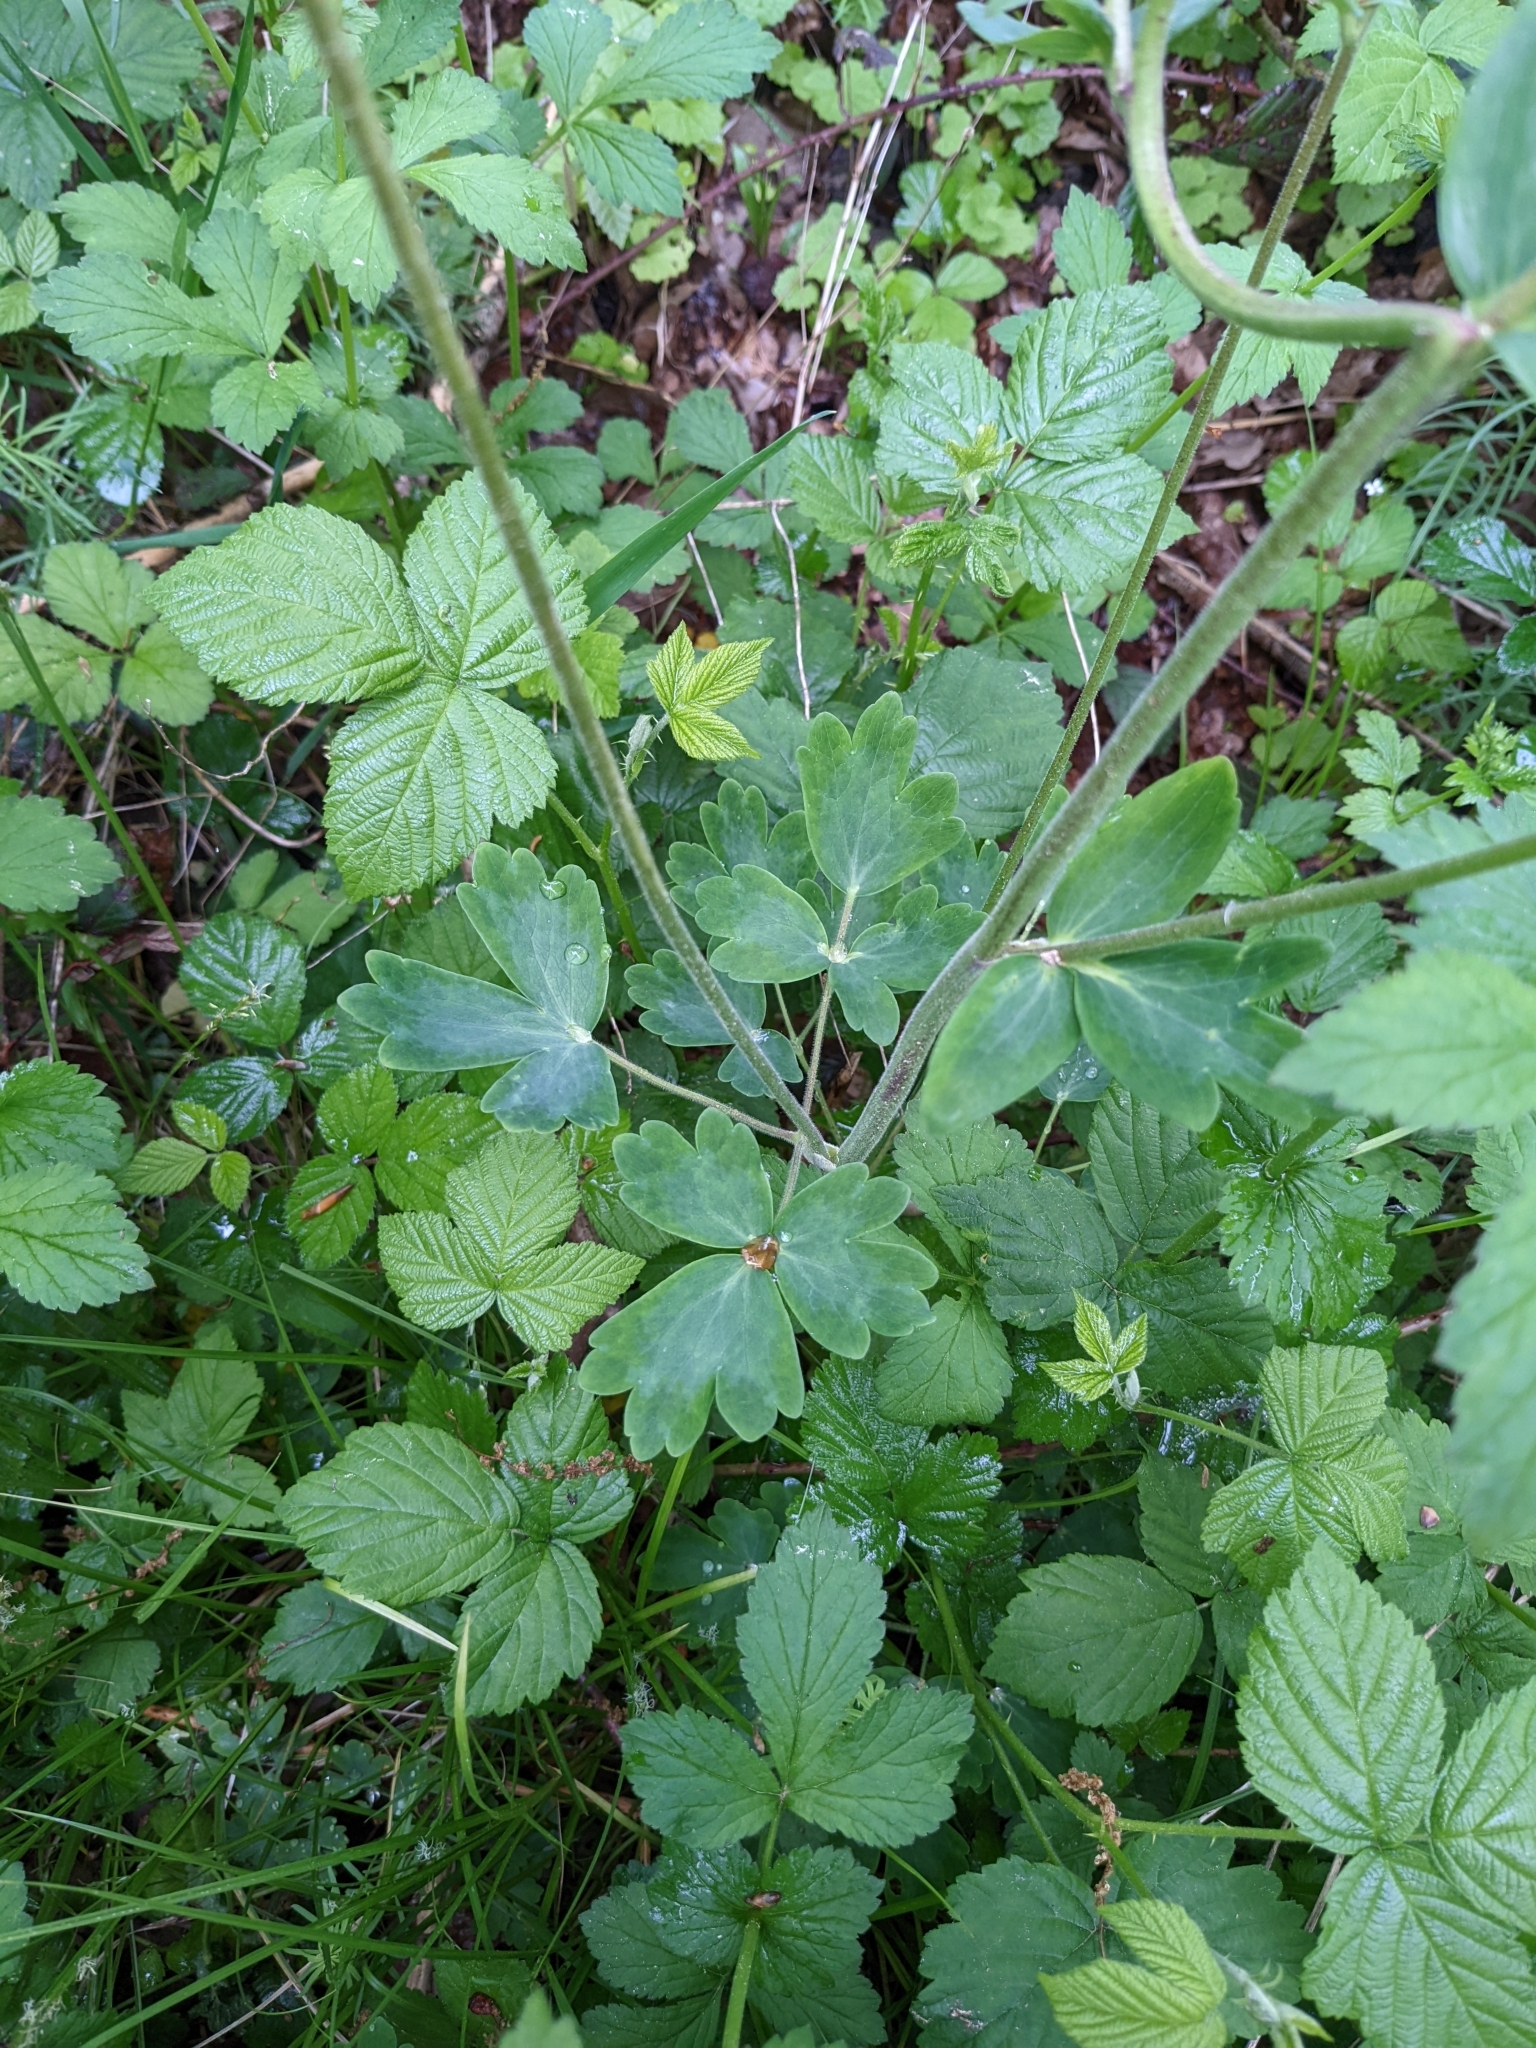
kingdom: Plantae
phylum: Tracheophyta
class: Magnoliopsida
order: Ranunculales
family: Ranunculaceae
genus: Aquilegia
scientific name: Aquilegia vulgaris
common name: Columbine
